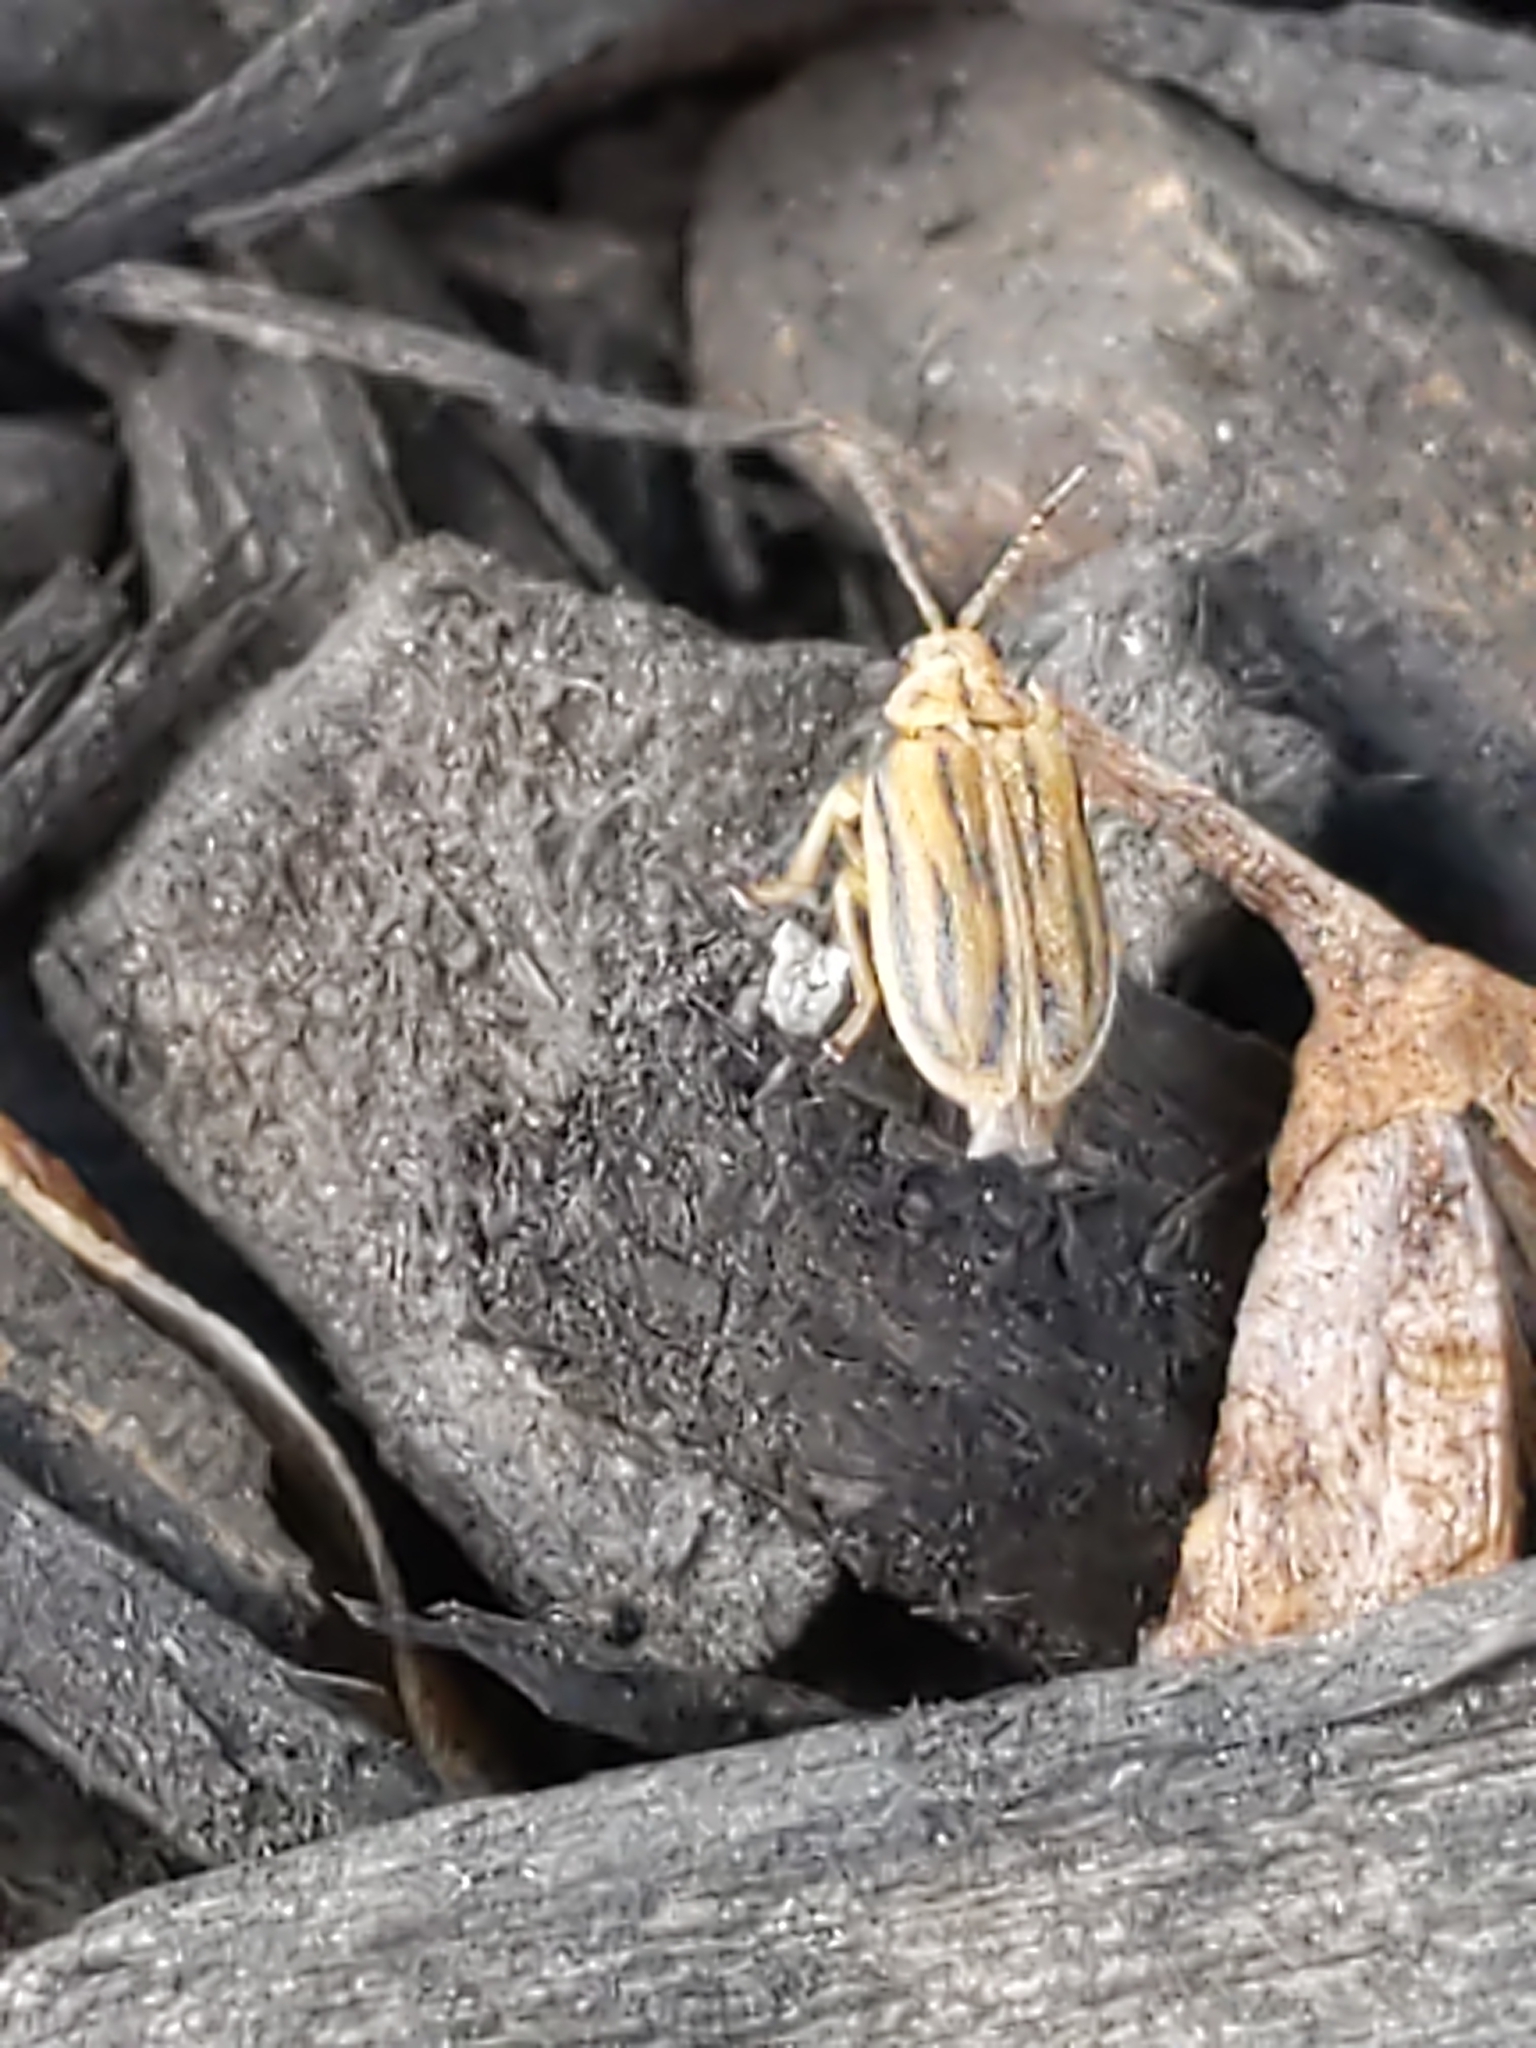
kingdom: Animalia
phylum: Arthropoda
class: Insecta
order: Coleoptera
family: Chrysomelidae
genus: Ophraella
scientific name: Ophraella communa
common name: Ragweed leaf beetle
